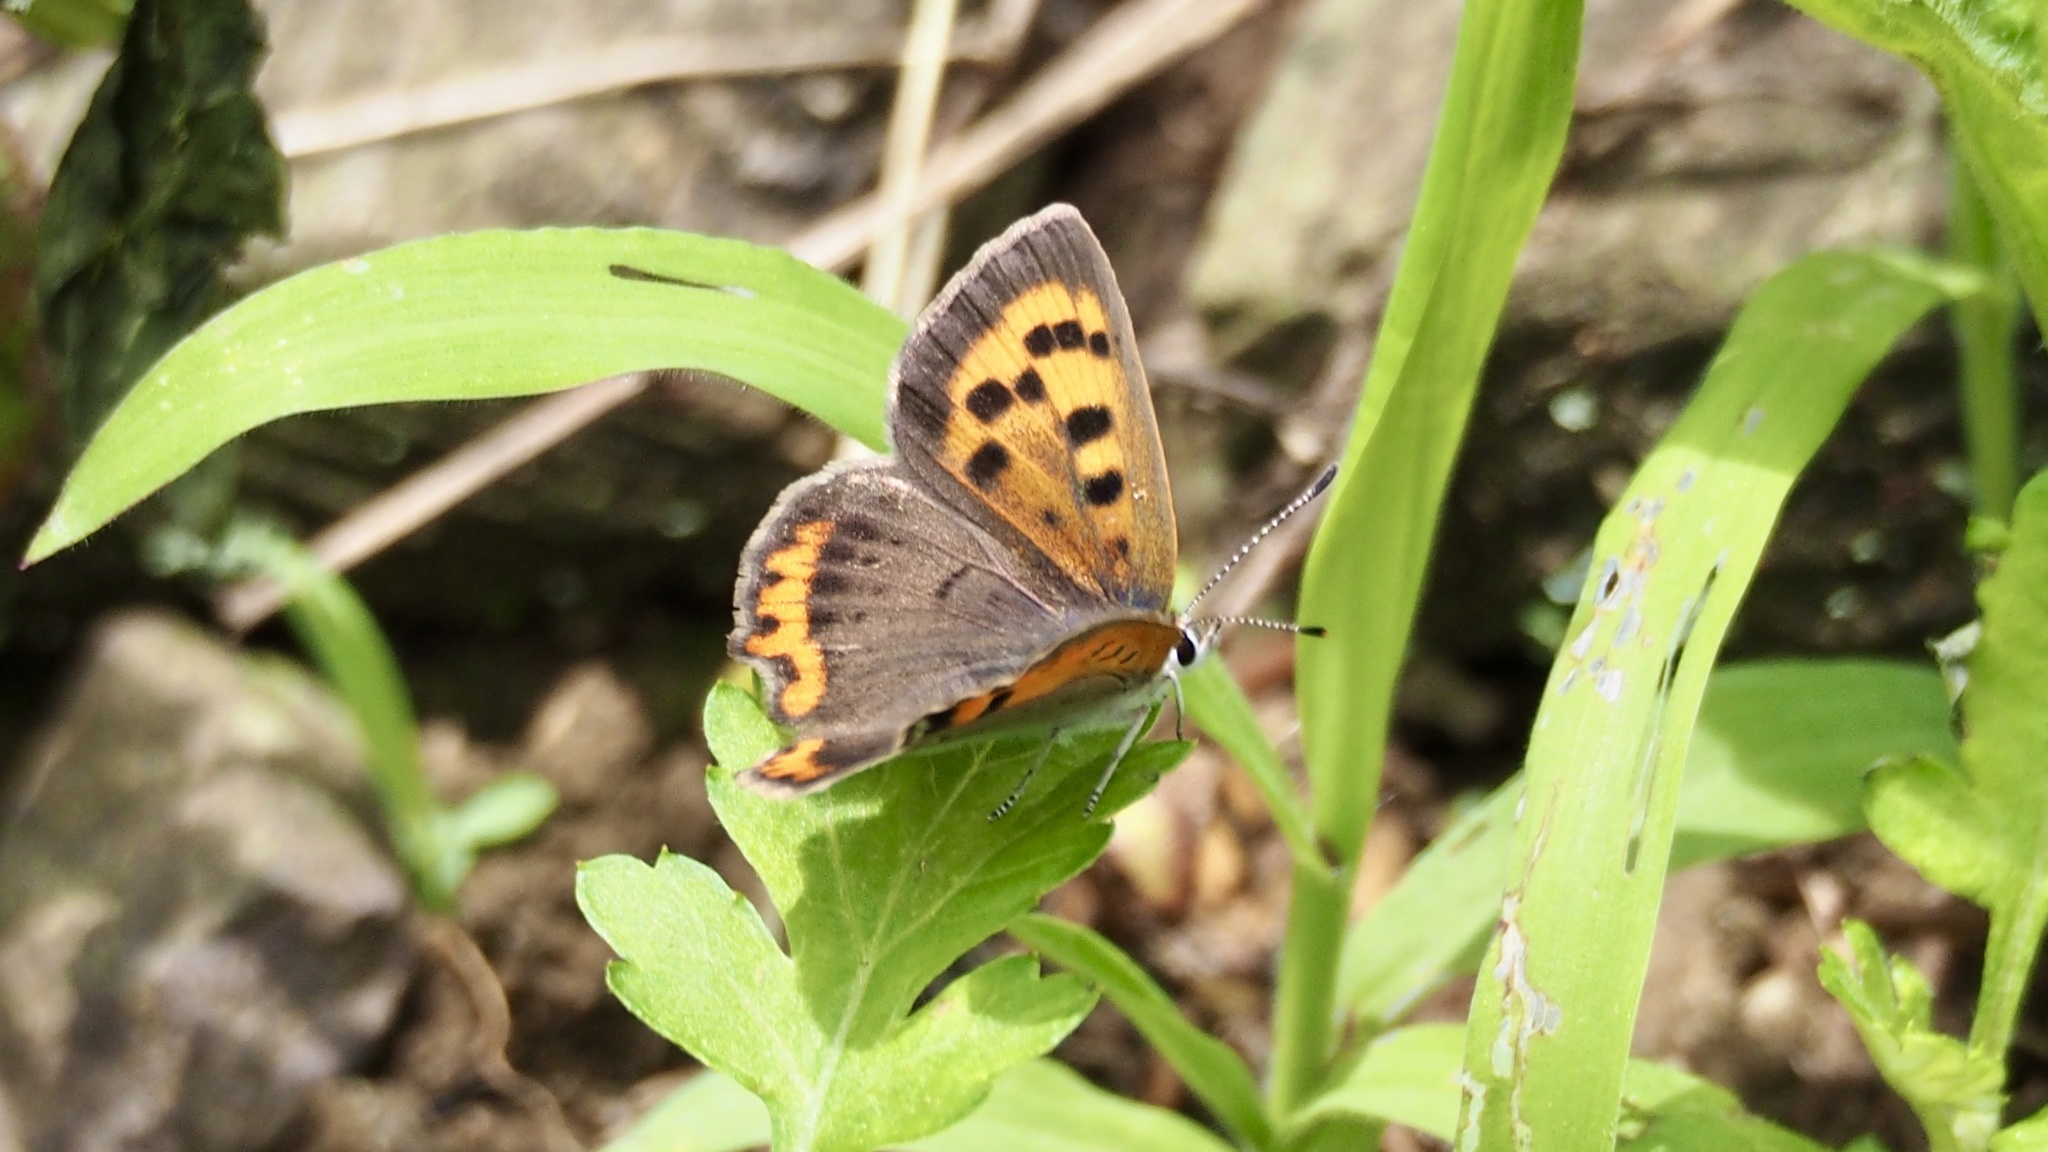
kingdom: Animalia
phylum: Arthropoda
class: Insecta
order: Lepidoptera
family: Lycaenidae
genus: Lycaena
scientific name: Lycaena phlaeas
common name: Small copper
